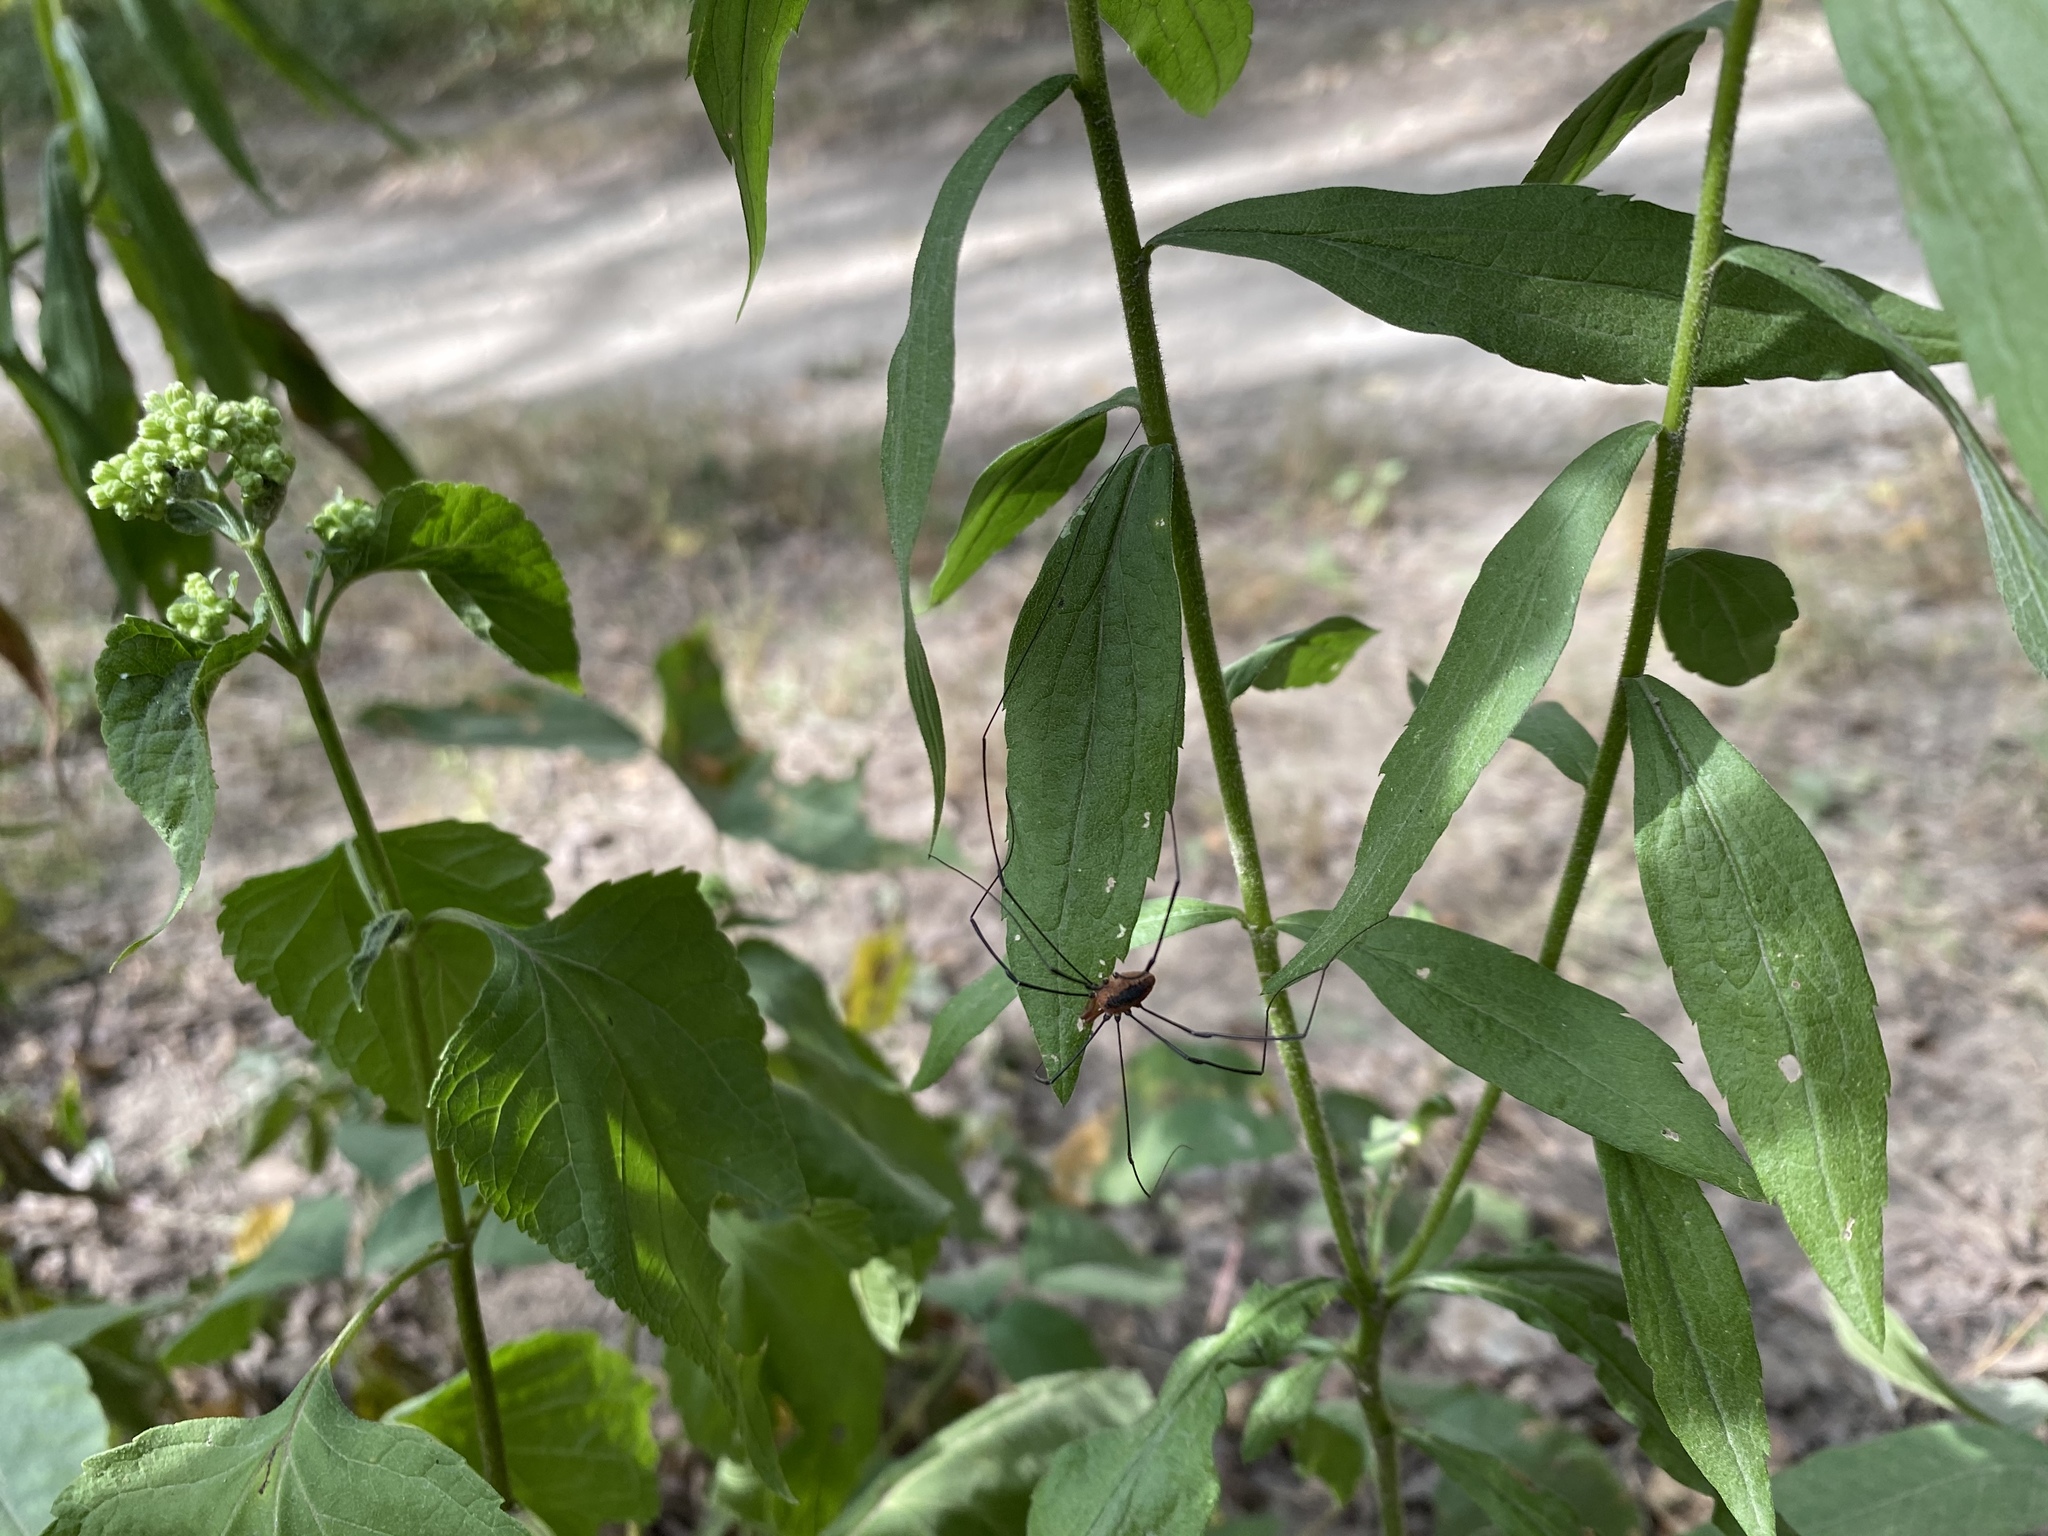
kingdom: Animalia
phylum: Arthropoda
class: Arachnida
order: Opiliones
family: Sclerosomatidae
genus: Leiobunum
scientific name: Leiobunum vittatum
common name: Eastern harvestman
